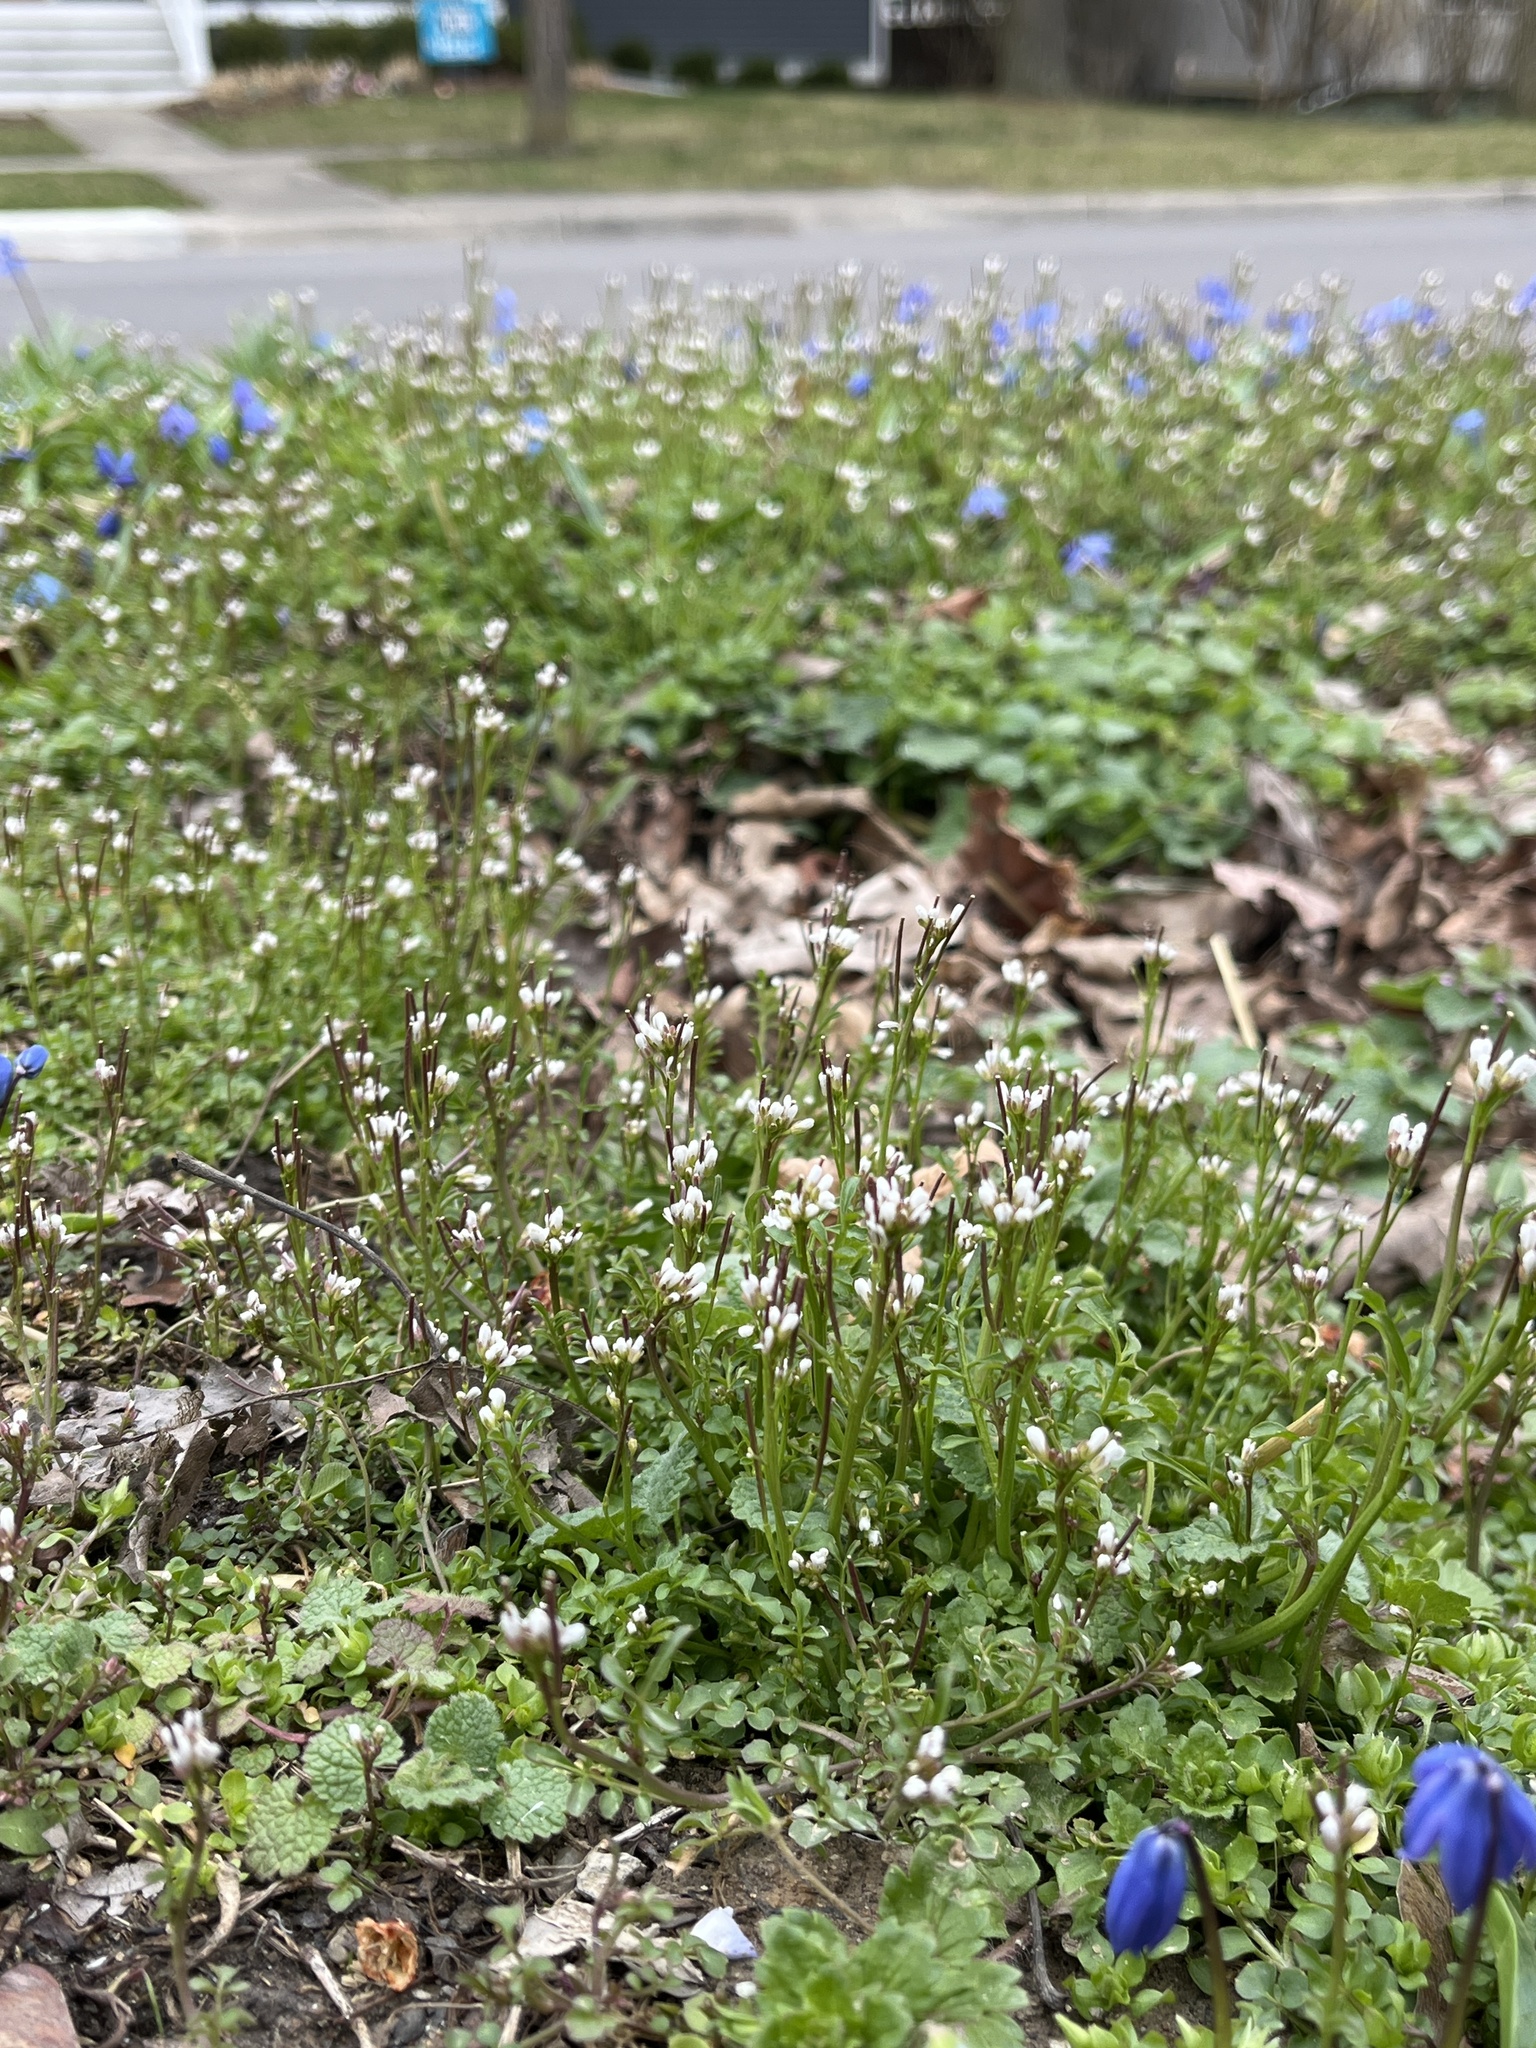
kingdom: Plantae
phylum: Tracheophyta
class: Magnoliopsida
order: Brassicales
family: Brassicaceae
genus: Cardamine
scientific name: Cardamine hirsuta
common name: Hairy bittercress
